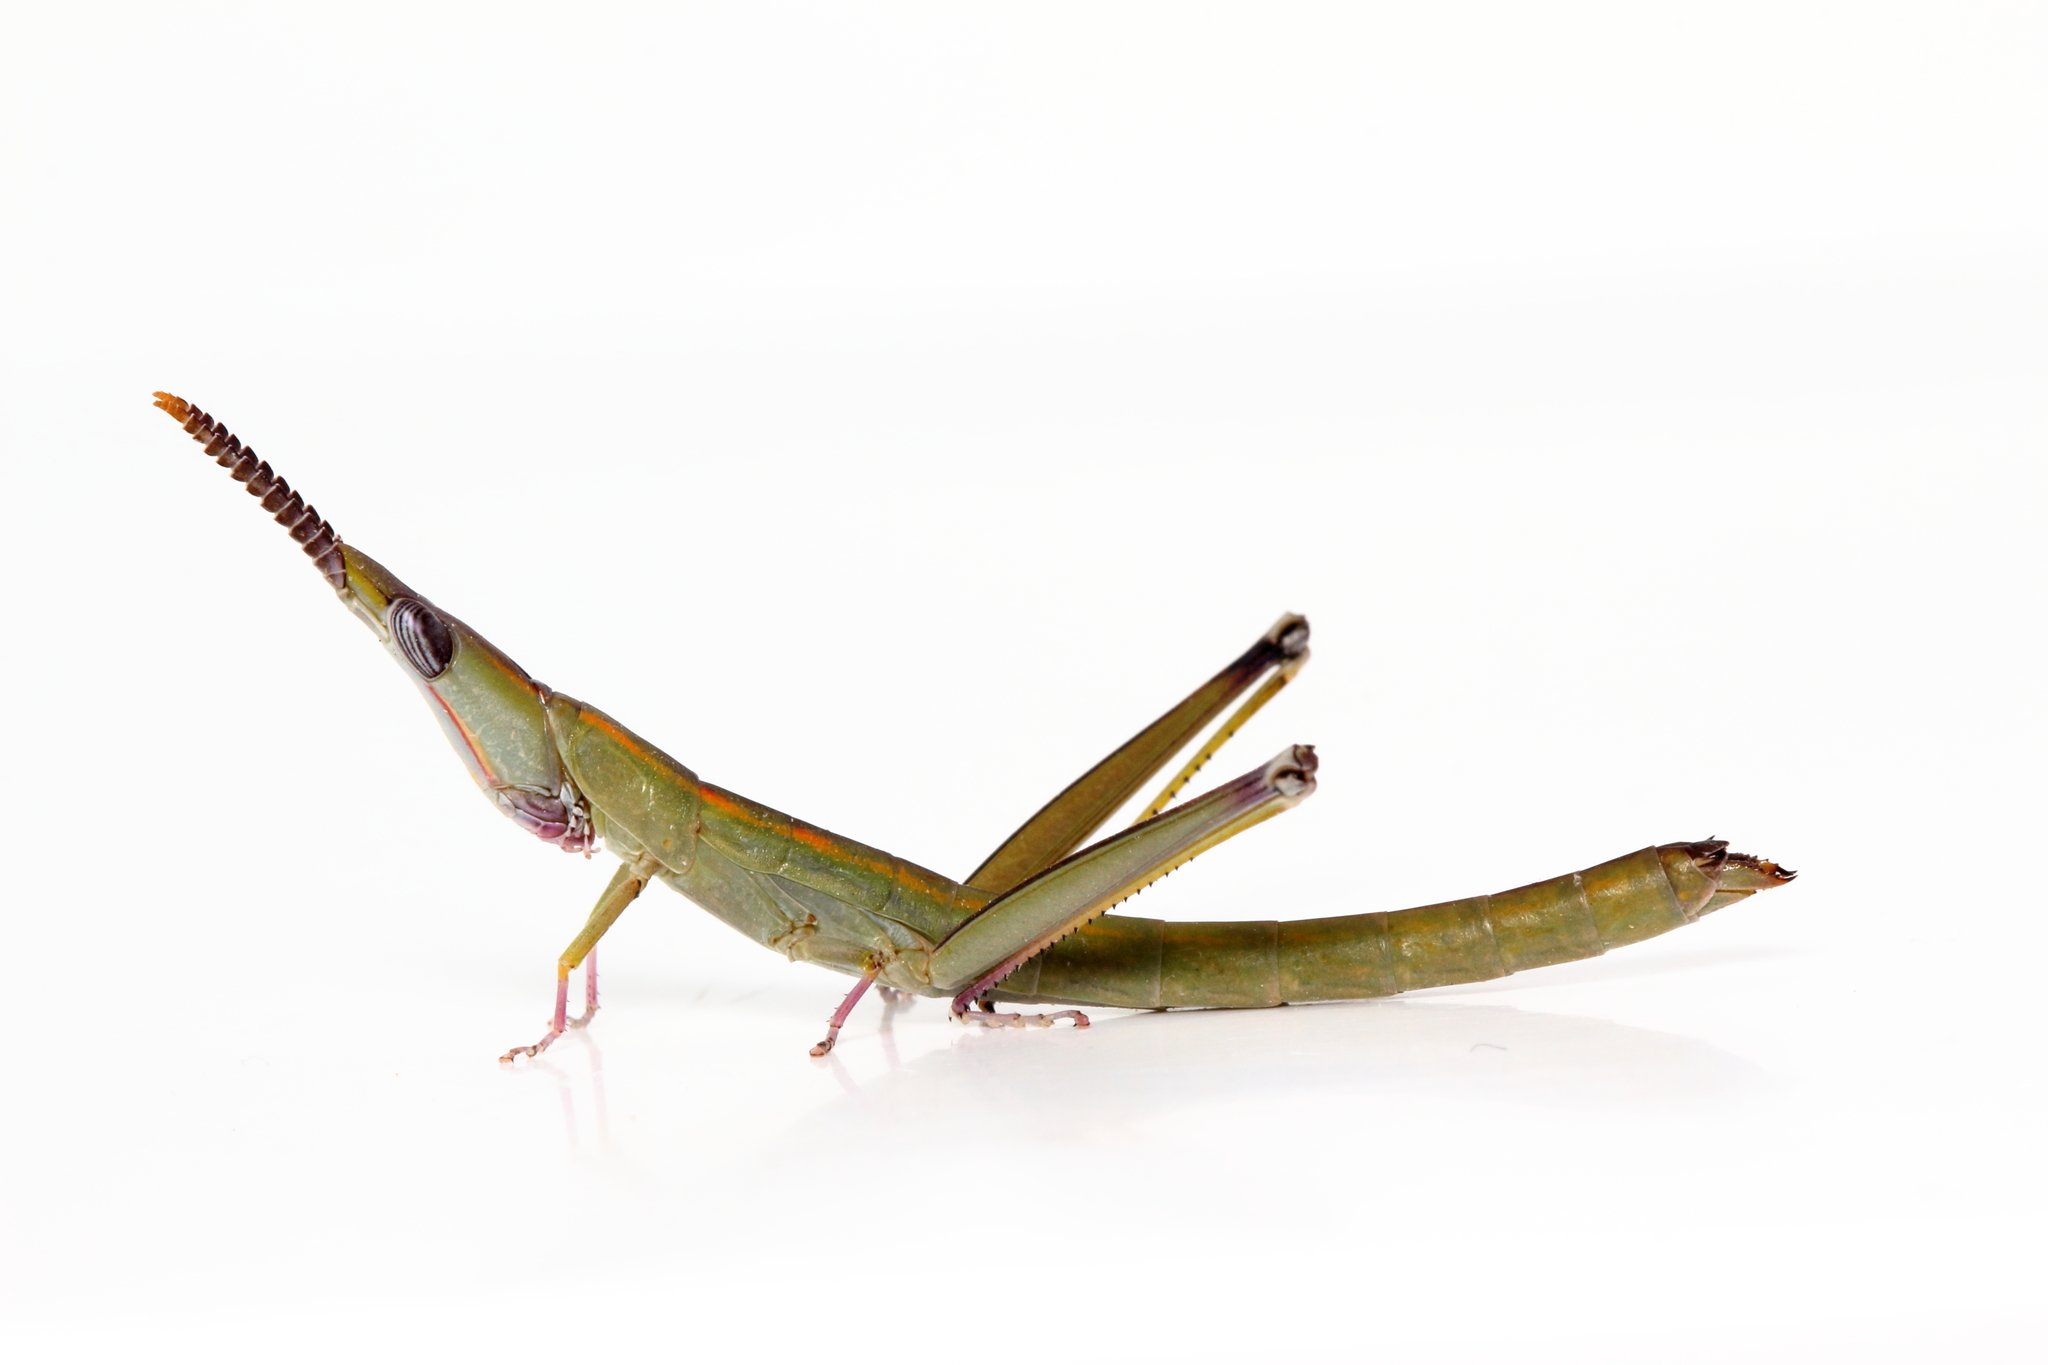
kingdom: Animalia
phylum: Arthropoda
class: Insecta
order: Orthoptera
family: Morabidae
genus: Warramaba
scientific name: Warramaba ngadju
